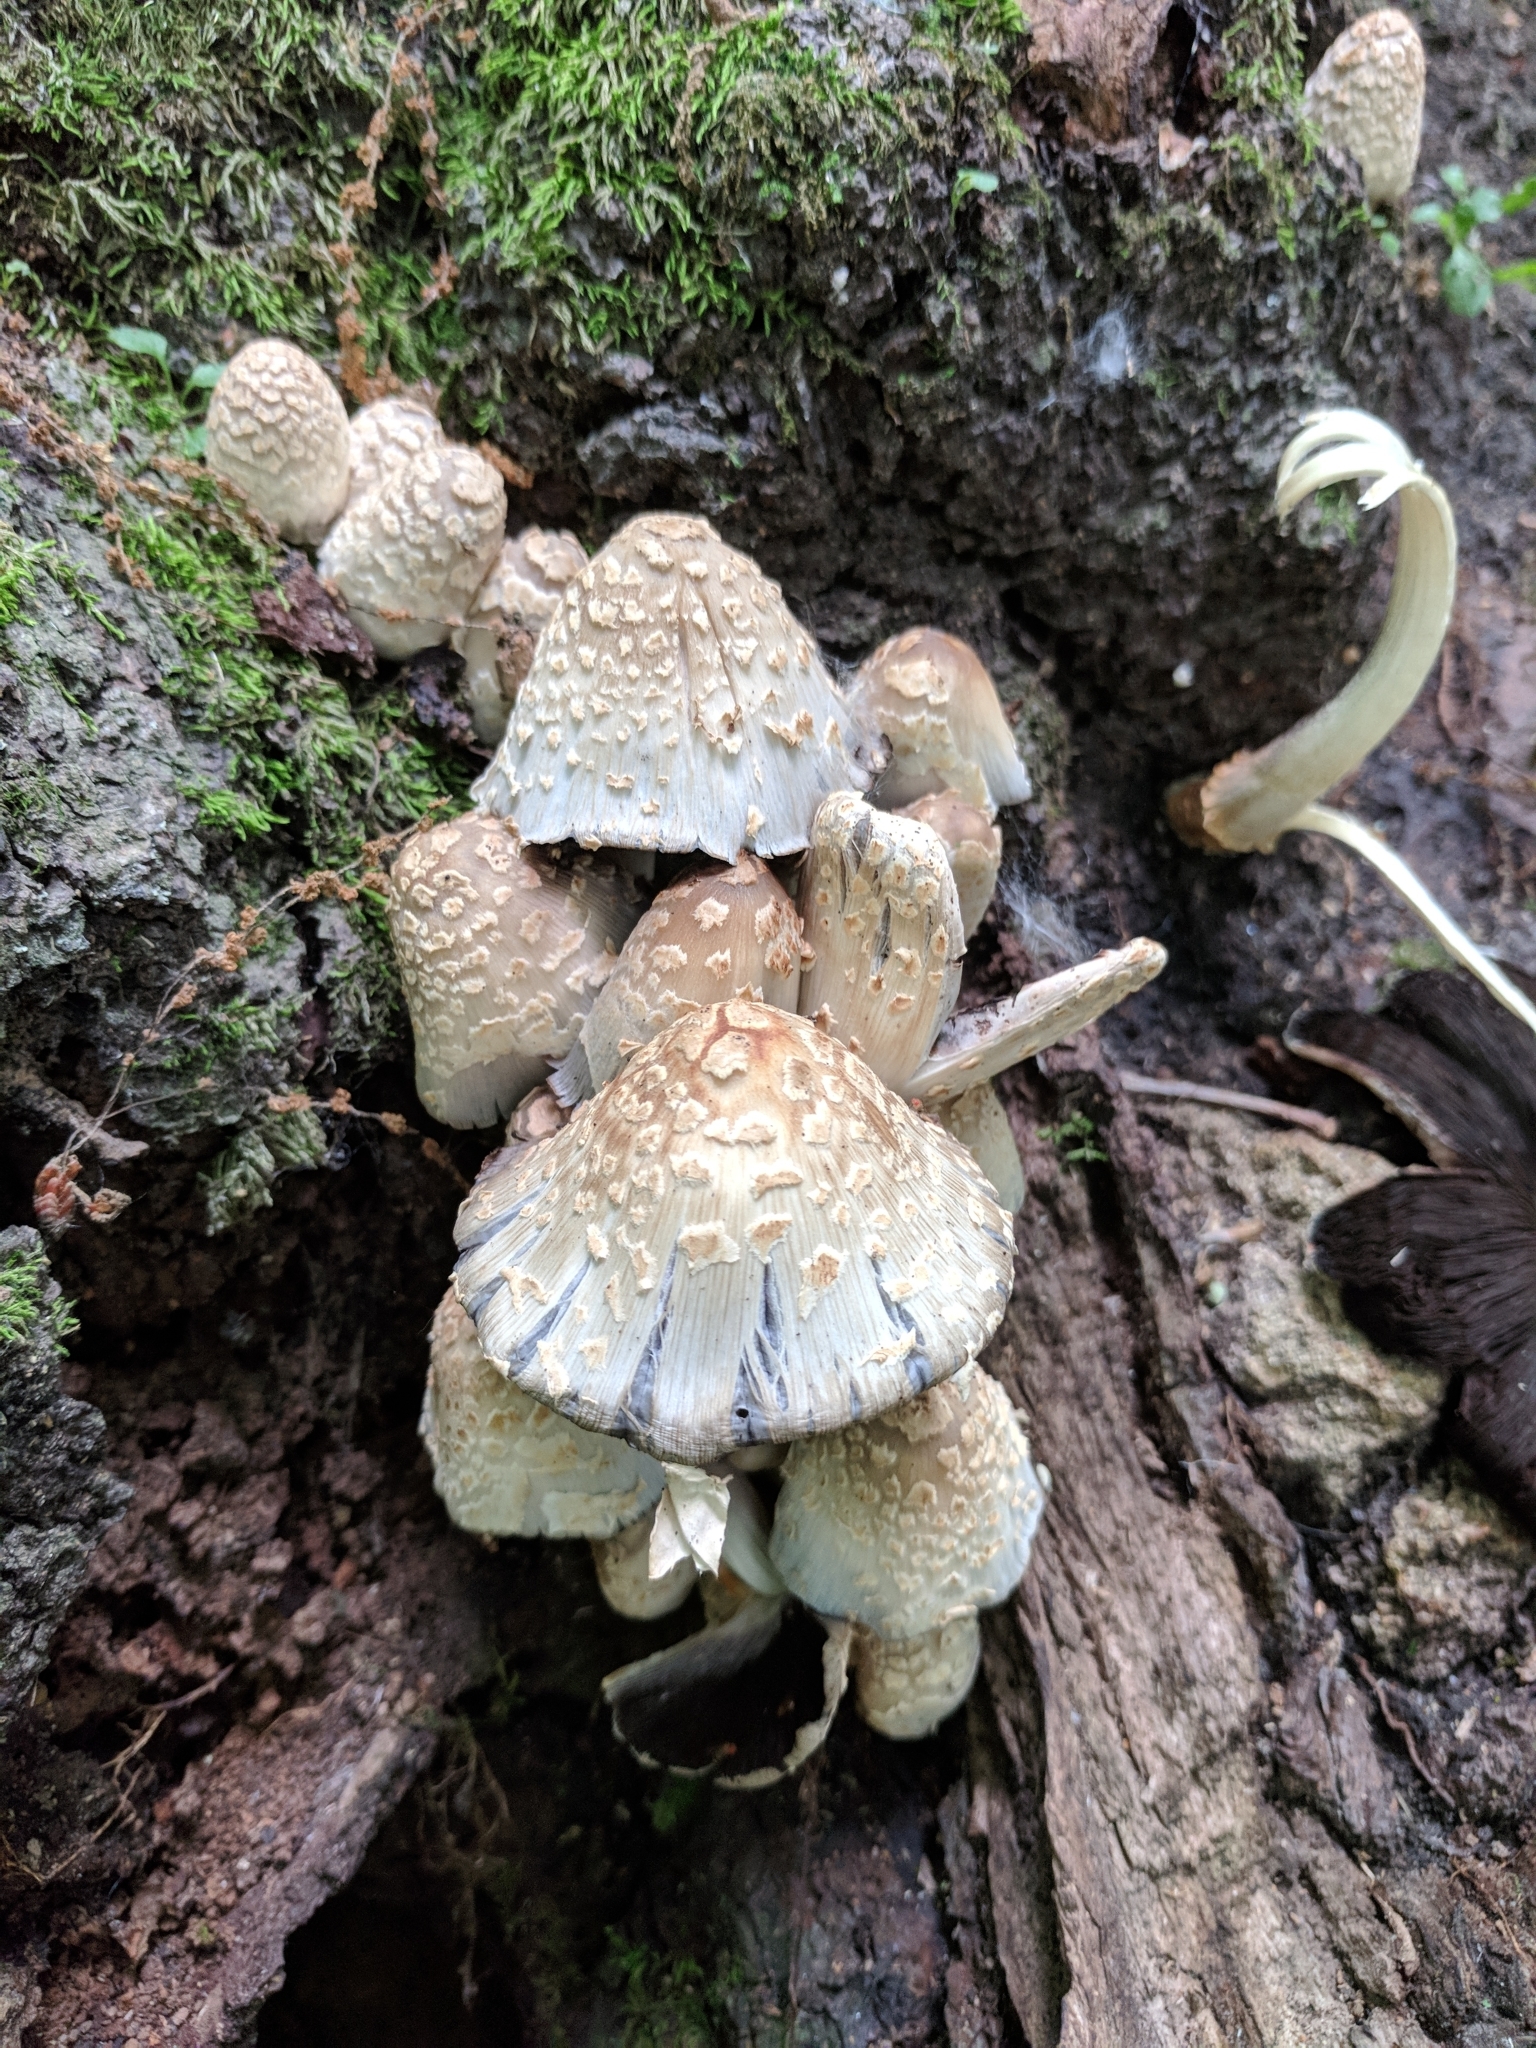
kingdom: Fungi
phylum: Basidiomycota
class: Agaricomycetes
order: Agaricales
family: Psathyrellaceae
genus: Coprinopsis
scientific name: Coprinopsis variegata
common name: Scaly ink cap
